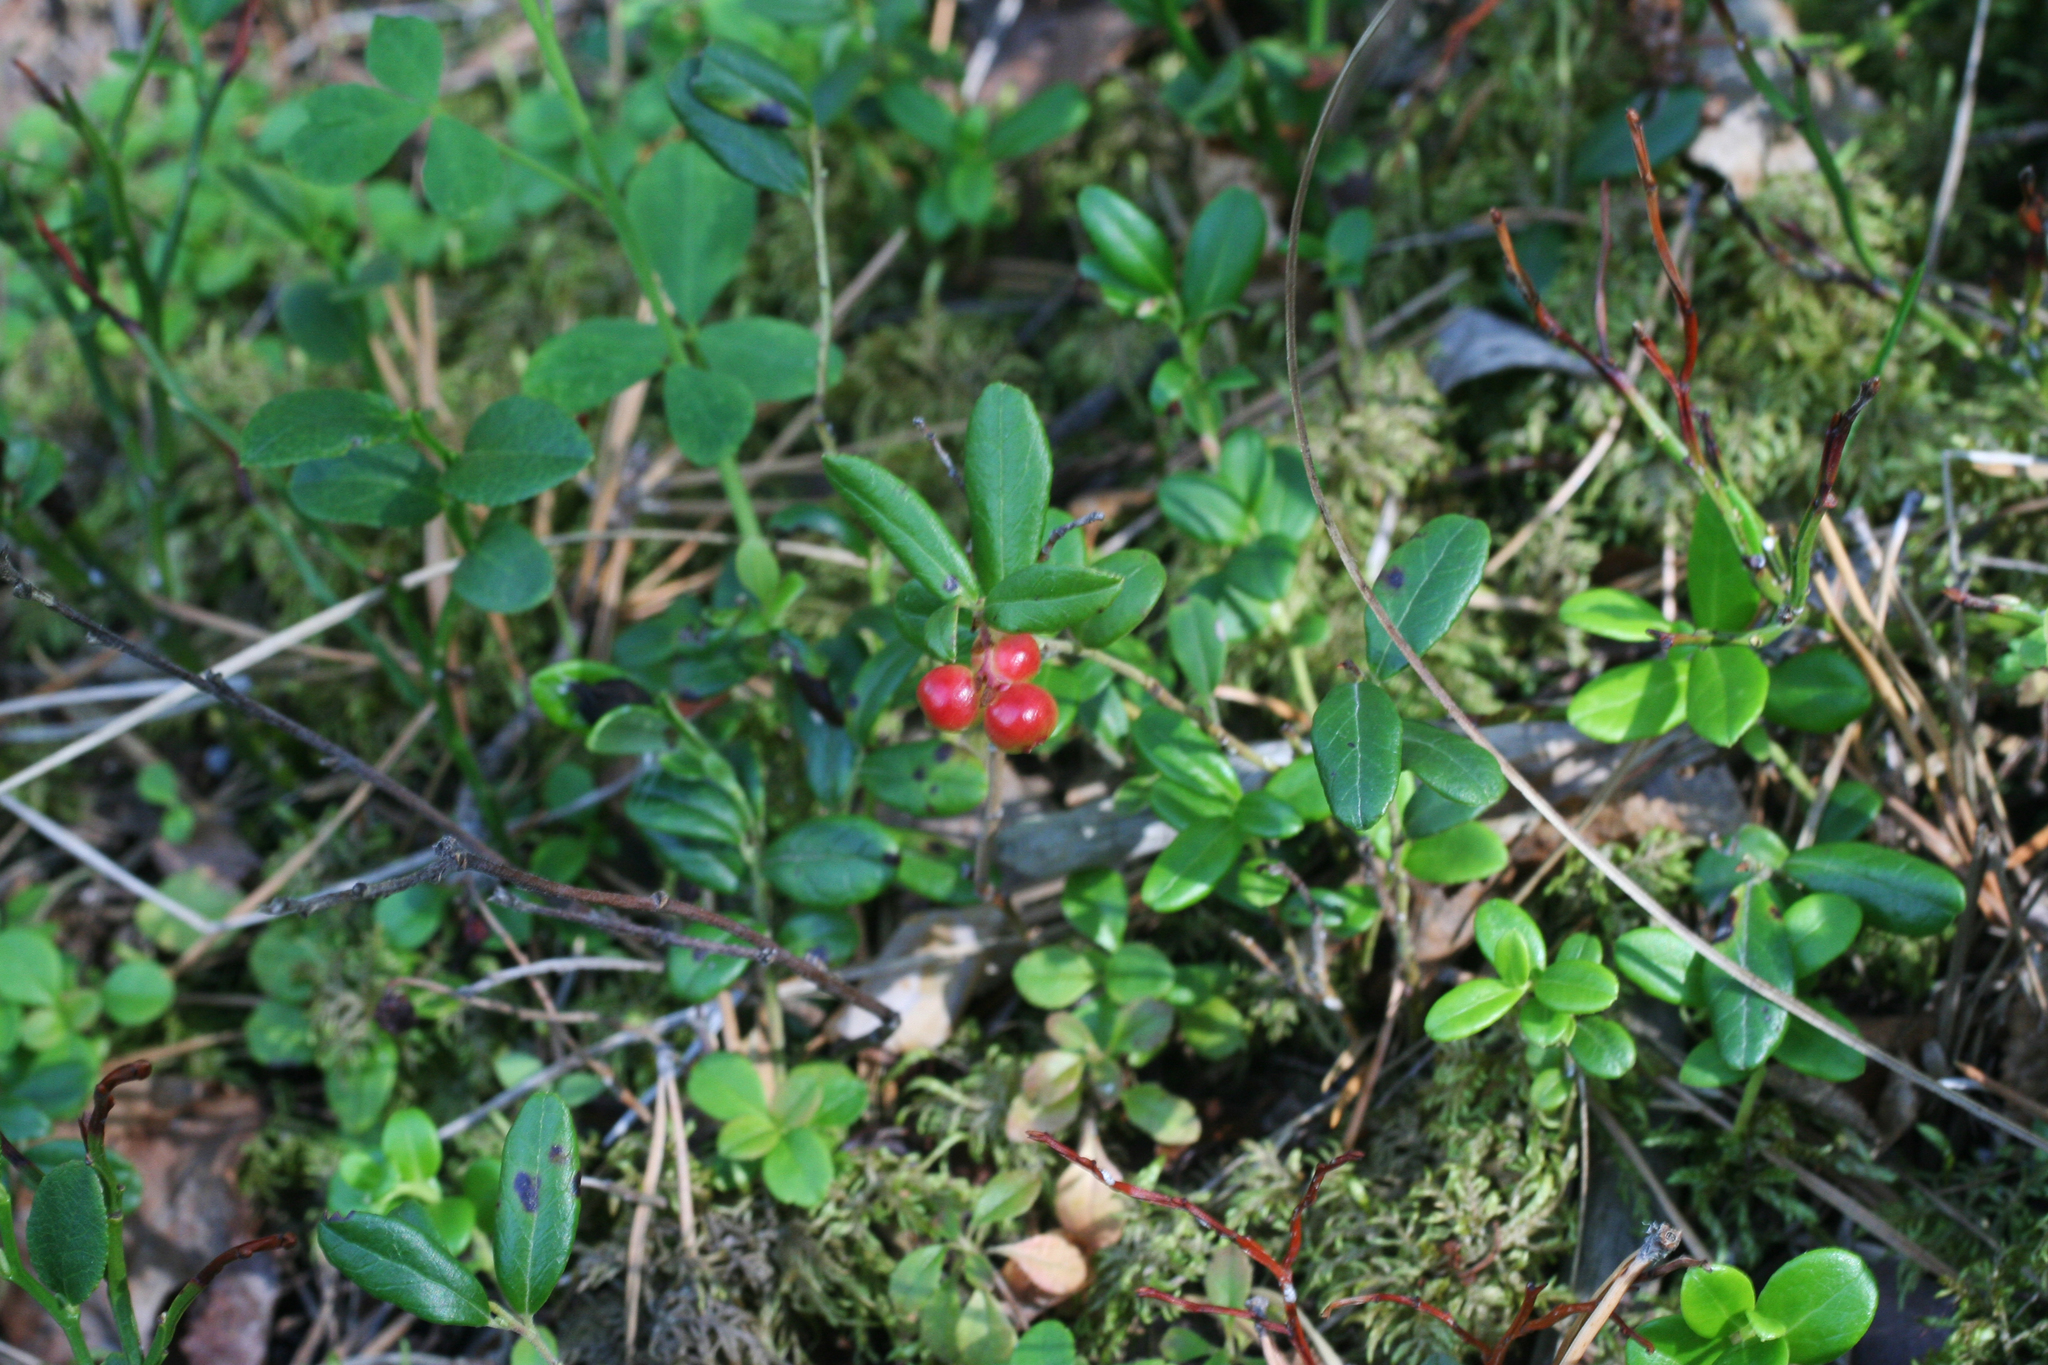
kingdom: Plantae
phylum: Tracheophyta
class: Magnoliopsida
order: Ericales
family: Ericaceae
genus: Vaccinium
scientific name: Vaccinium vitis-idaea
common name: Cowberry
